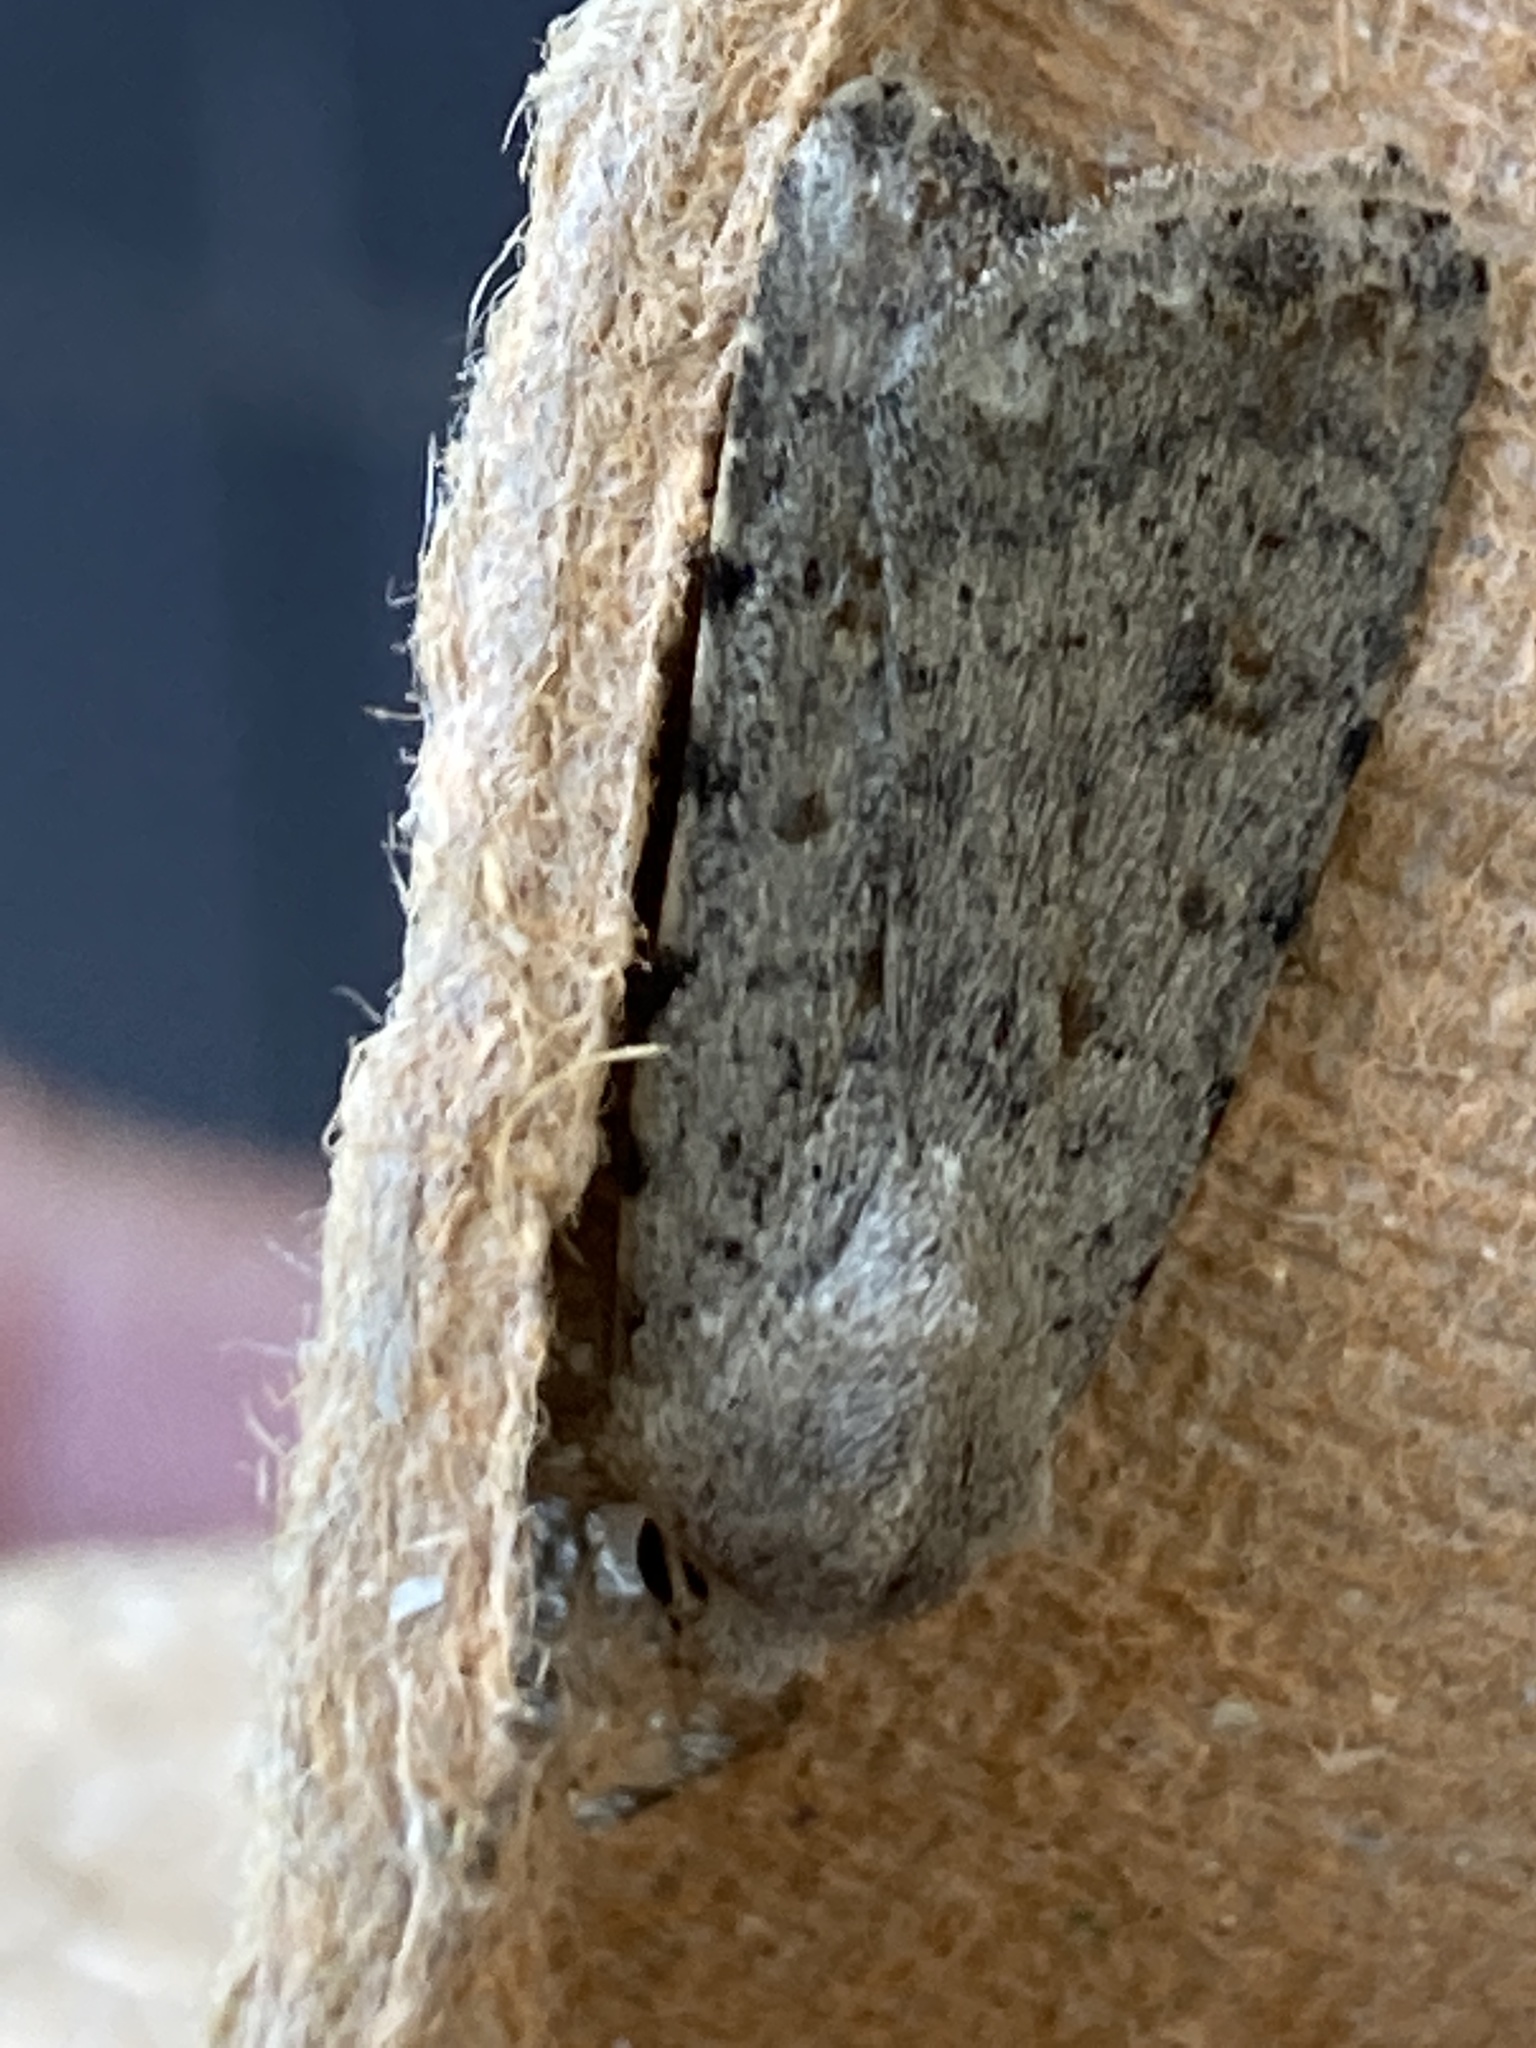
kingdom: Animalia
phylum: Arthropoda
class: Insecta
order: Lepidoptera
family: Noctuidae
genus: Caradrina
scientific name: Caradrina clavipalpis
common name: Pale mottled willow
